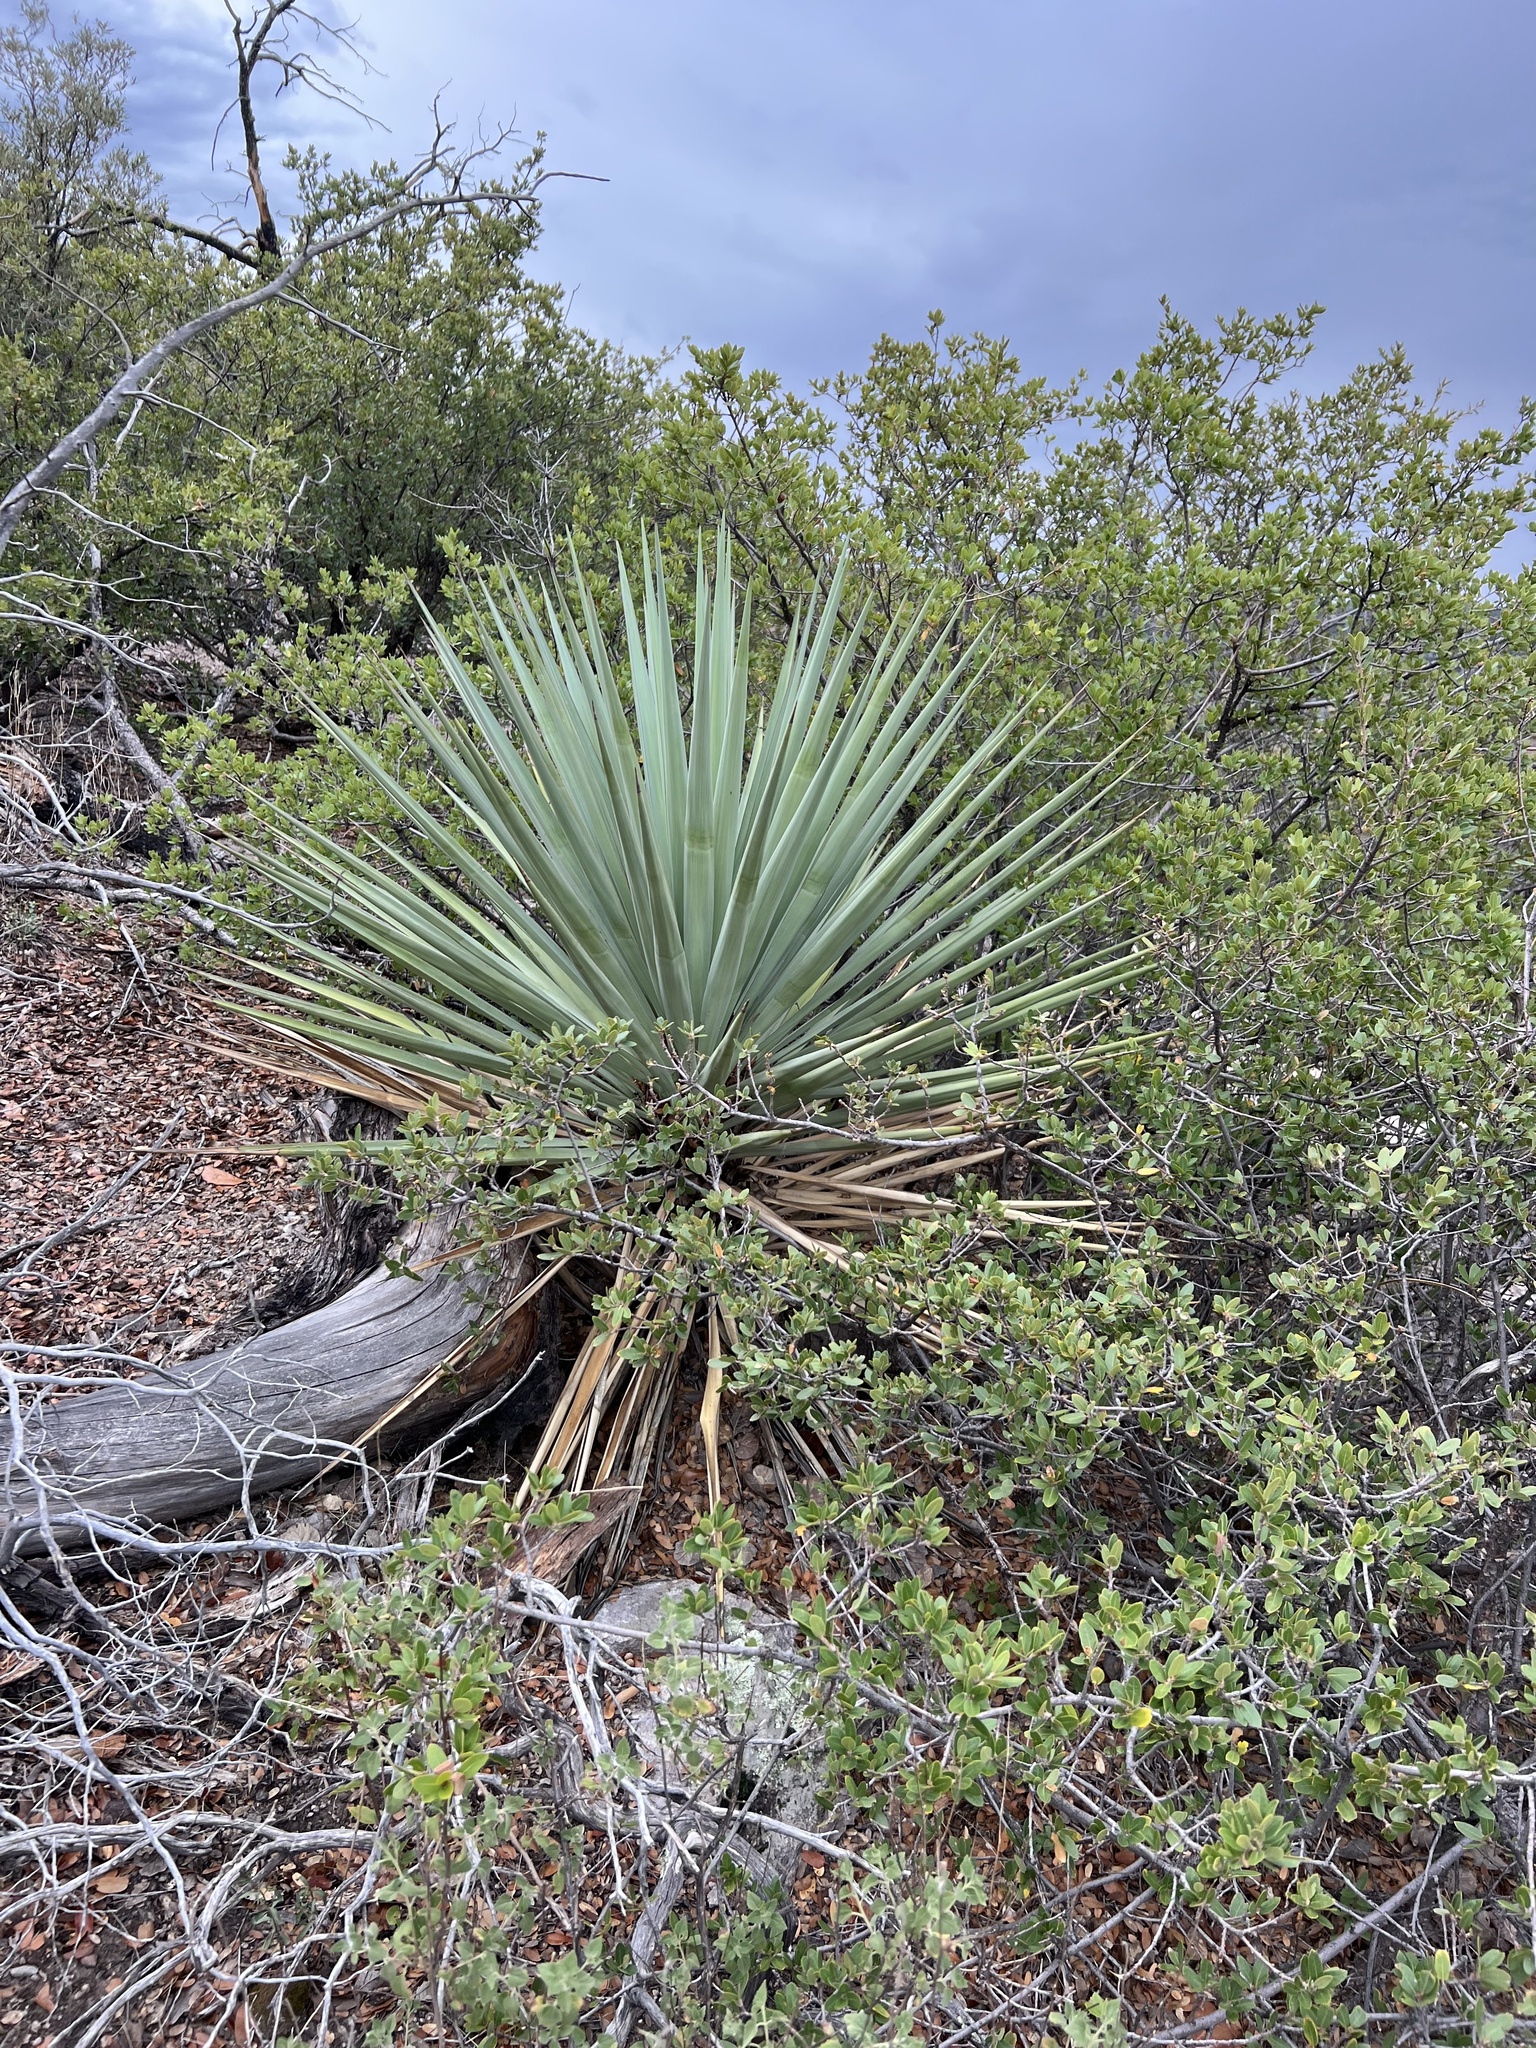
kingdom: Plantae
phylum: Tracheophyta
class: Liliopsida
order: Asparagales
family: Asparagaceae
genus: Yucca
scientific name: Yucca schottii
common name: Hoary yucca
